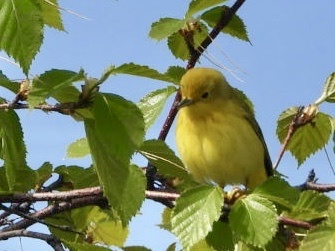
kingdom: Animalia
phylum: Chordata
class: Aves
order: Passeriformes
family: Parulidae
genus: Setophaga
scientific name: Setophaga petechia
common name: Yellow warbler
